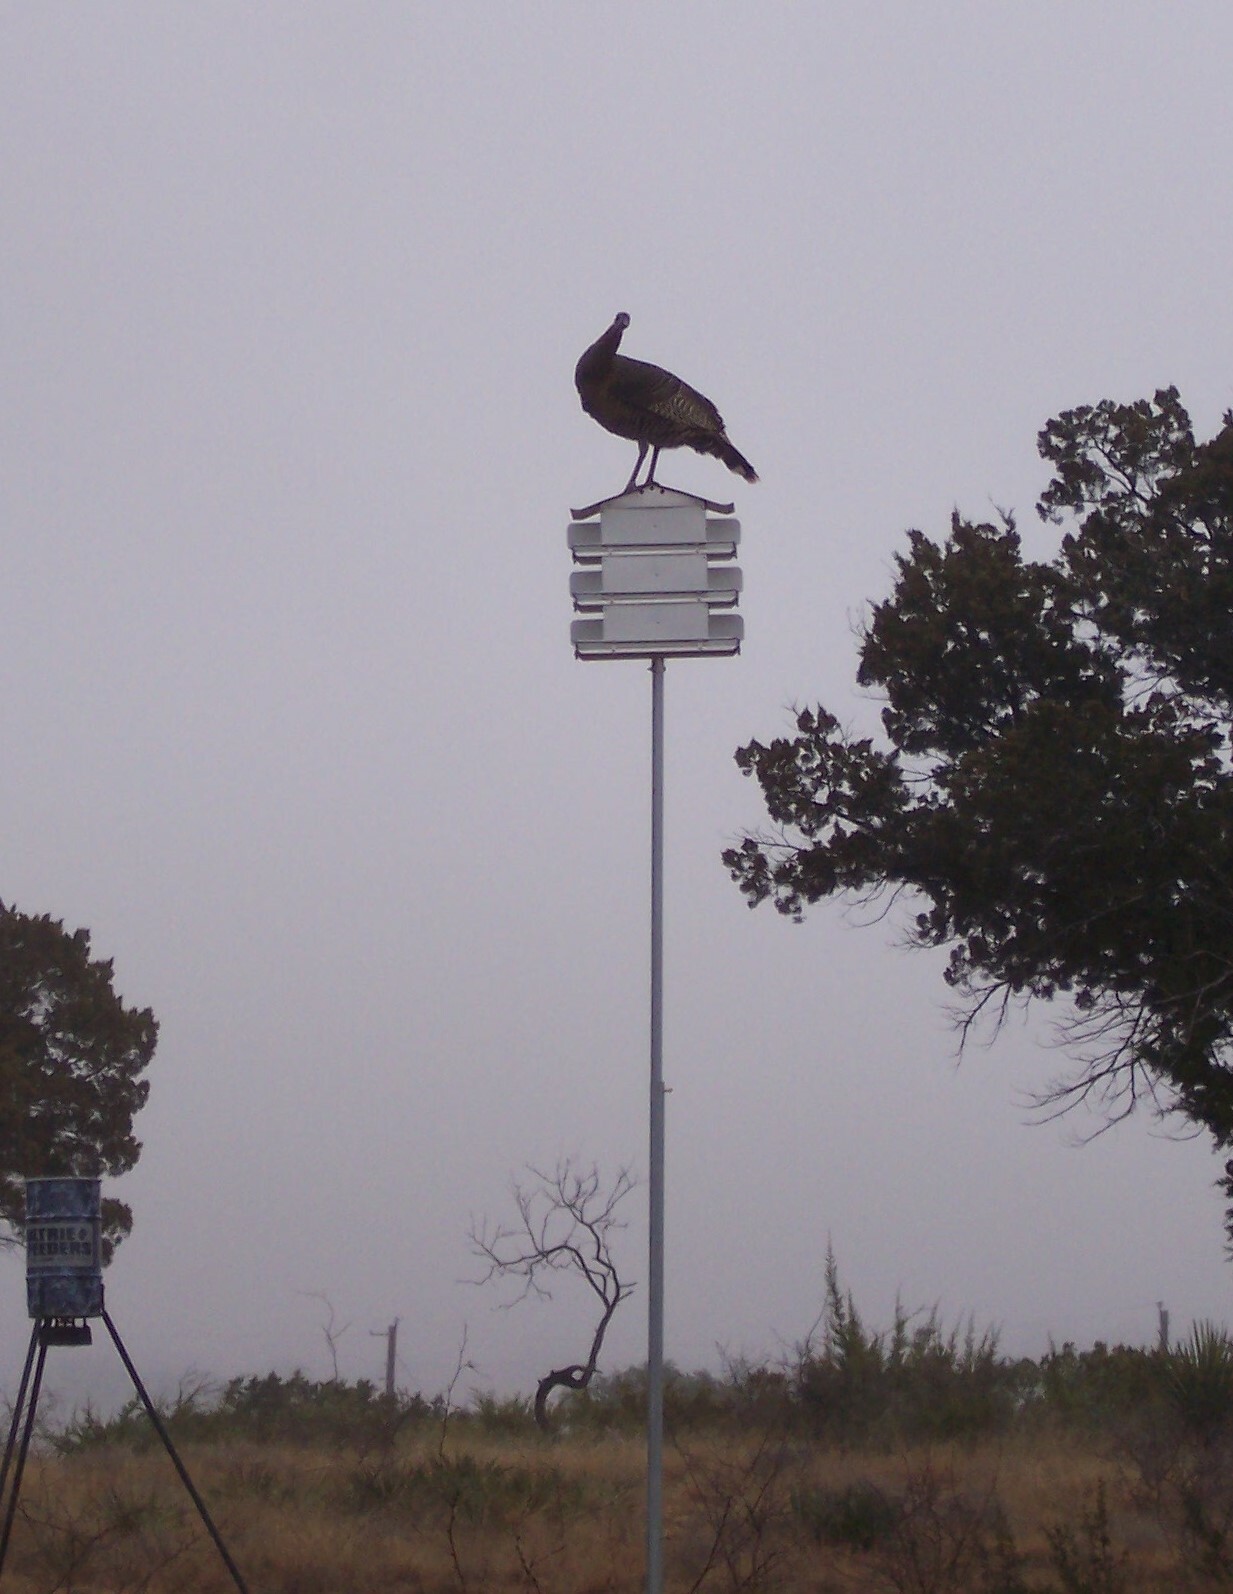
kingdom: Animalia
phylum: Chordata
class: Aves
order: Galliformes
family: Phasianidae
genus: Meleagris
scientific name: Meleagris gallopavo
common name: Wild turkey
